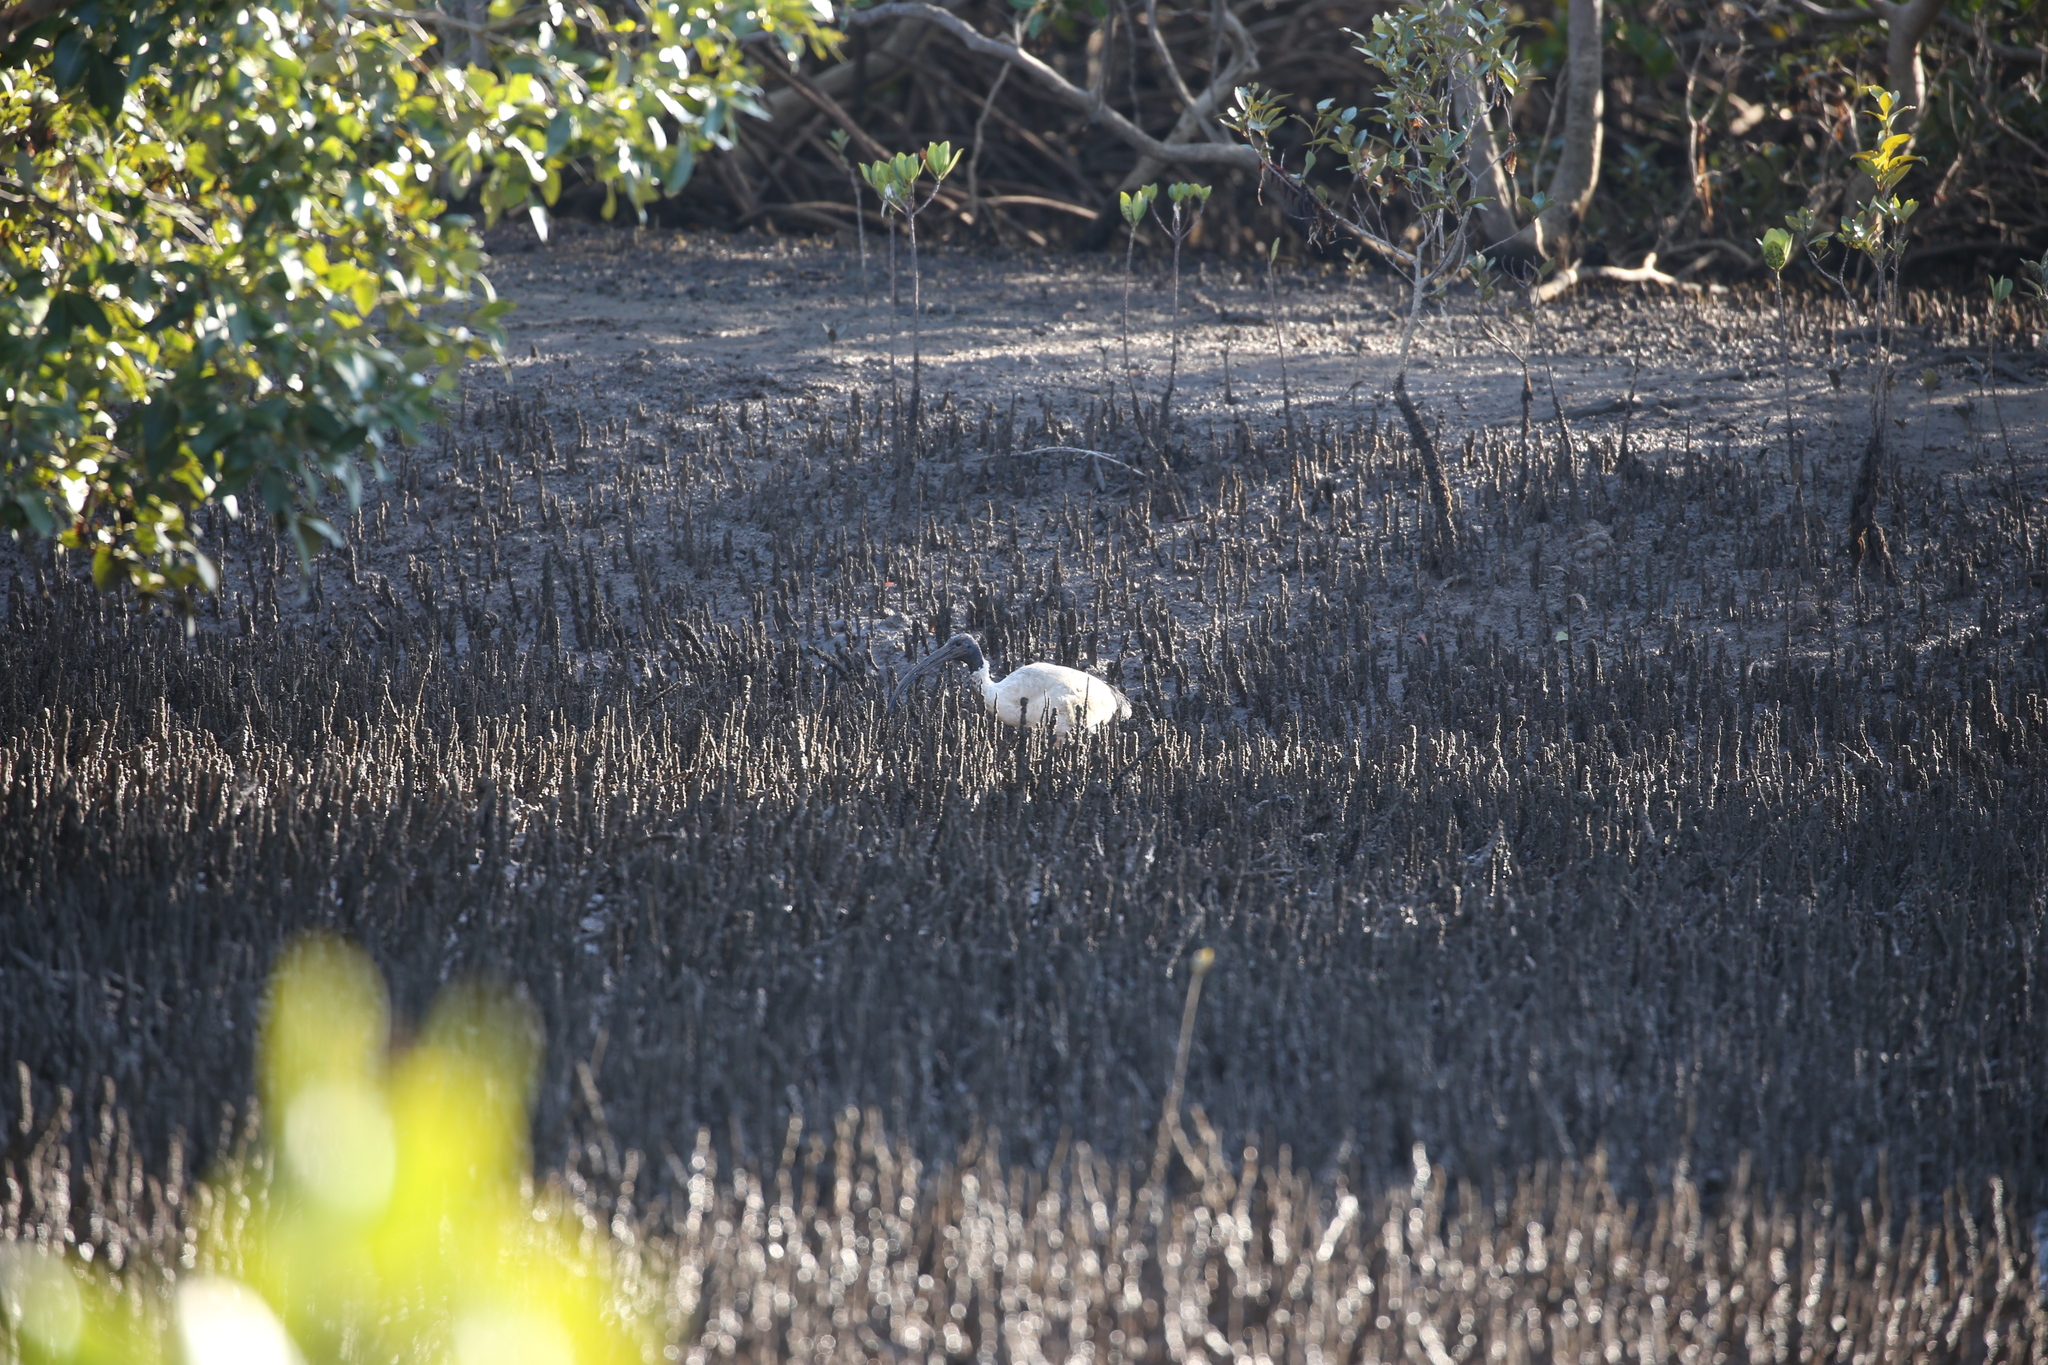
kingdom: Animalia
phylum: Chordata
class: Aves
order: Pelecaniformes
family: Threskiornithidae
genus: Threskiornis
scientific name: Threskiornis molucca
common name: Australian white ibis
